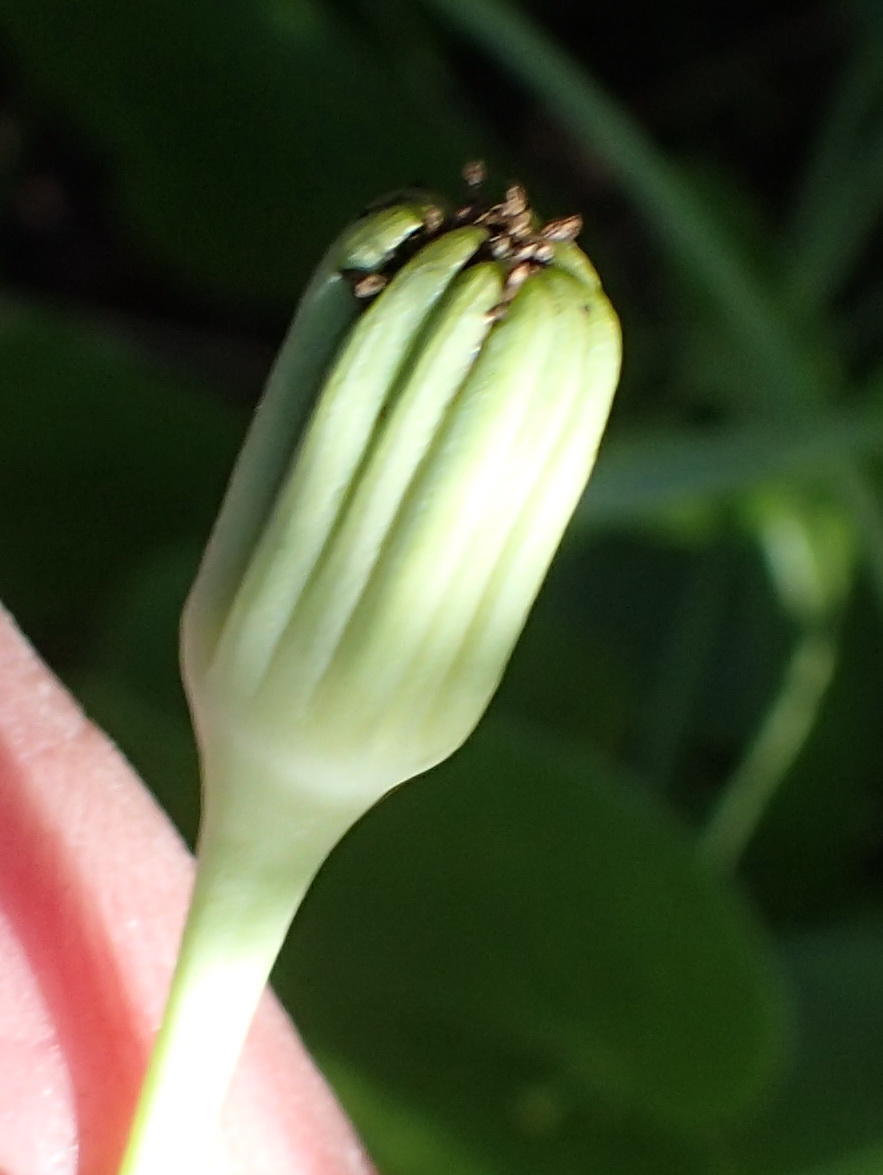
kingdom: Plantae
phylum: Tracheophyta
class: Magnoliopsida
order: Asterales
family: Asteraceae
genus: Othonna
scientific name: Othonna undulosa
